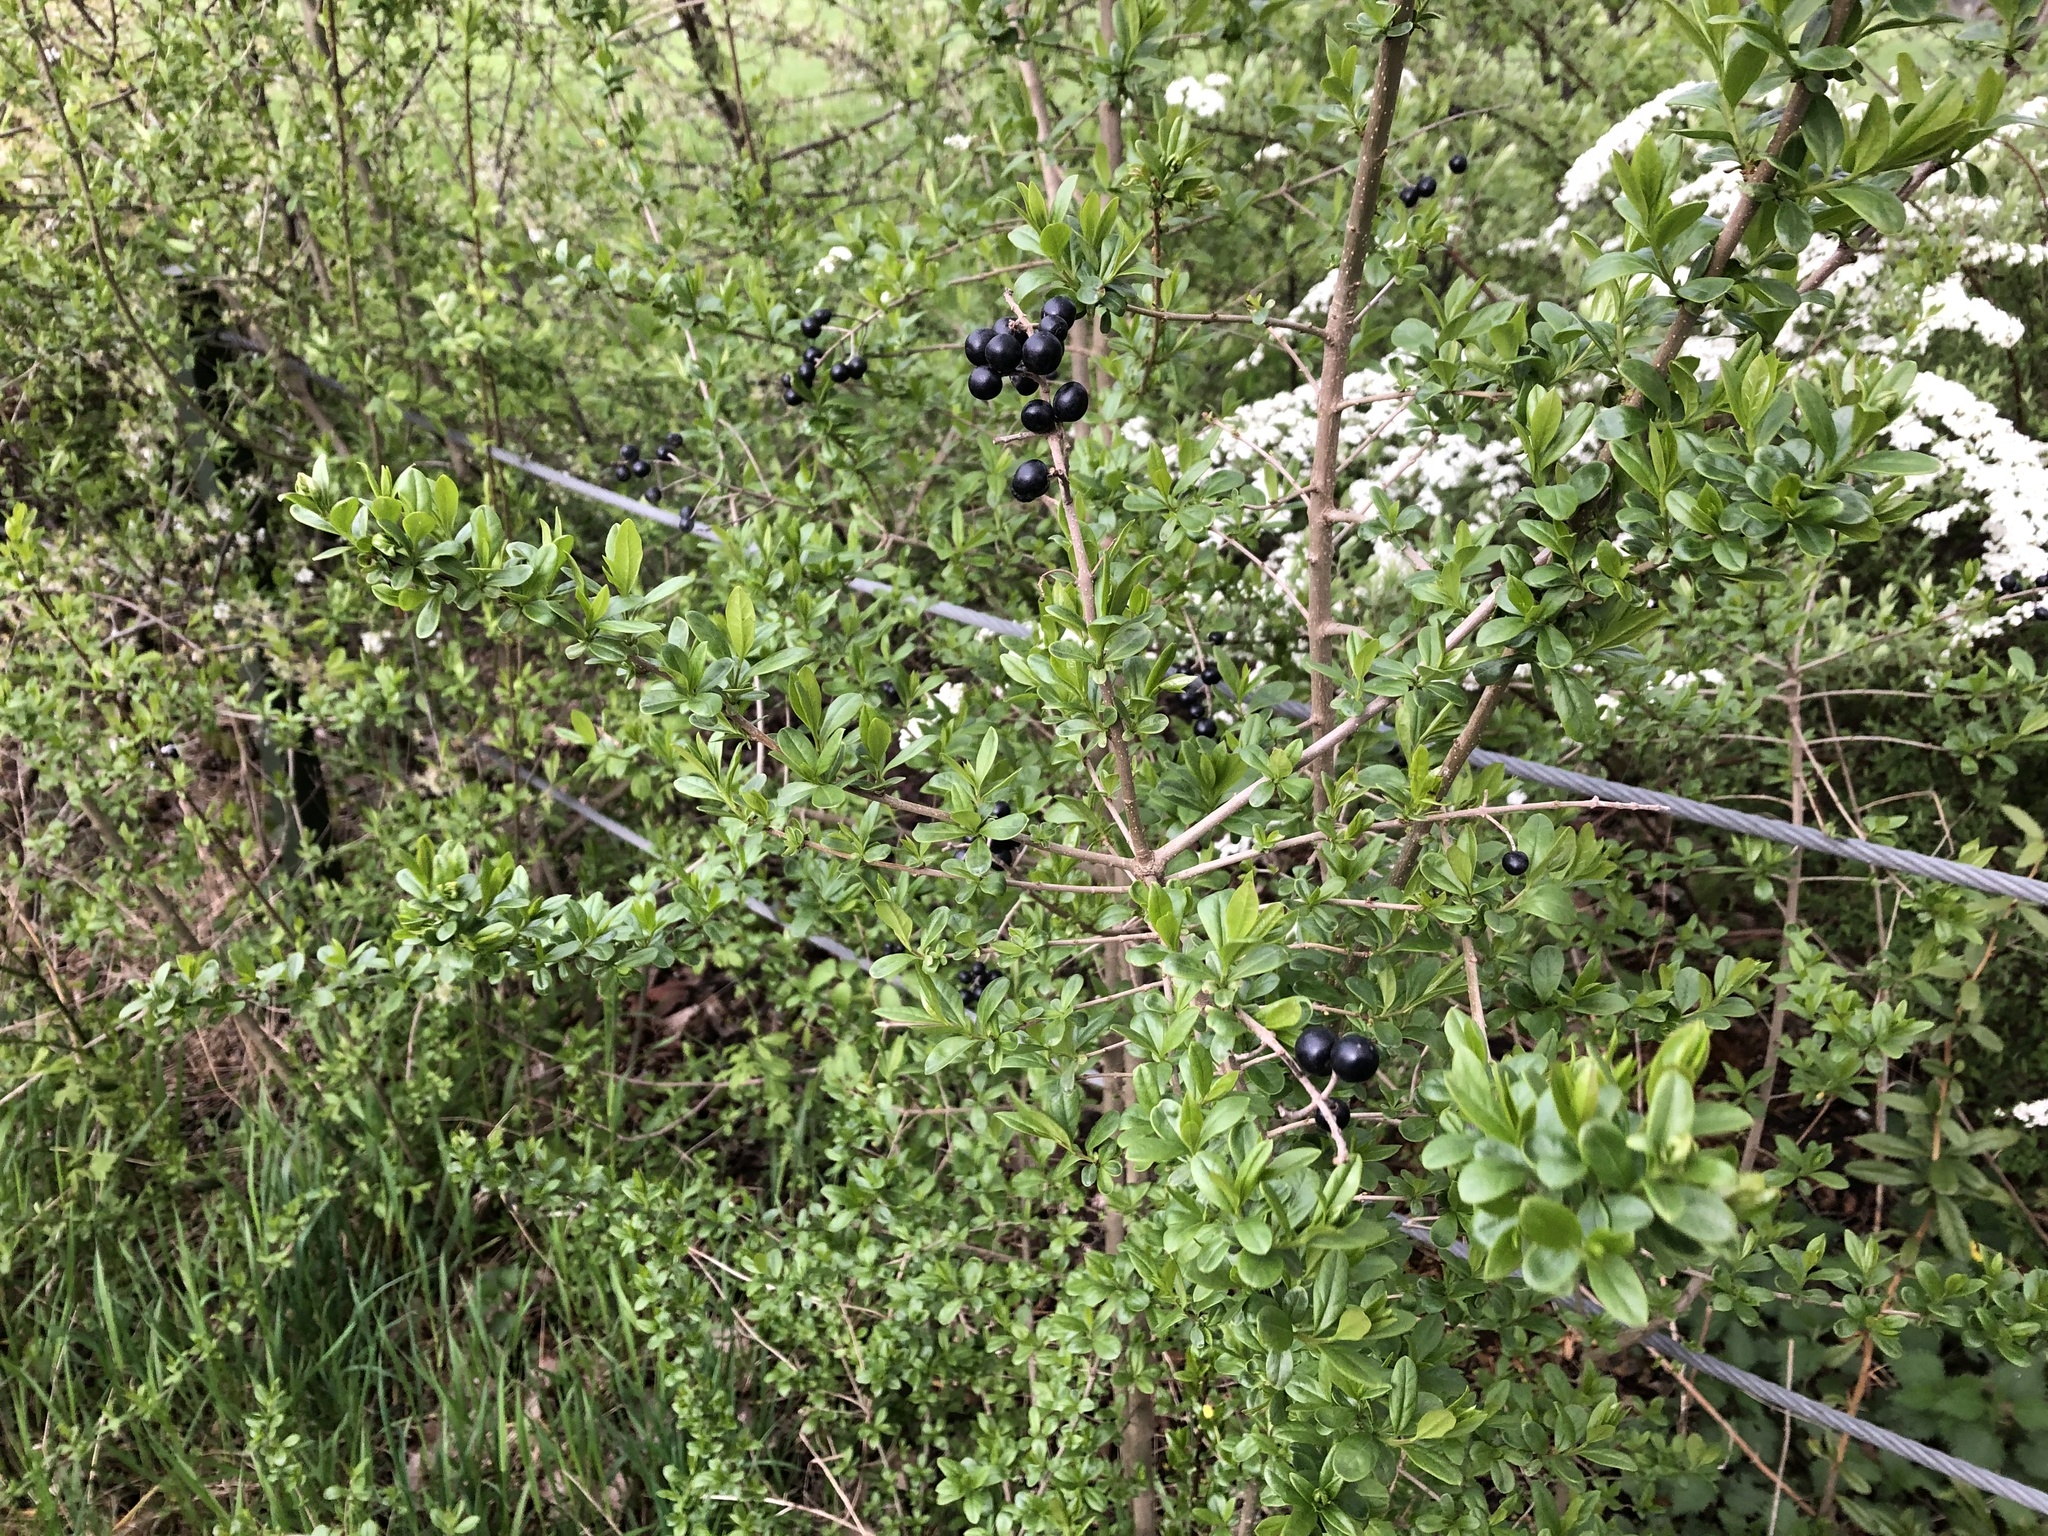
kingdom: Plantae
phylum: Tracheophyta
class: Magnoliopsida
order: Lamiales
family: Oleaceae
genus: Ligustrum
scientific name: Ligustrum vulgare
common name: Wild privet
